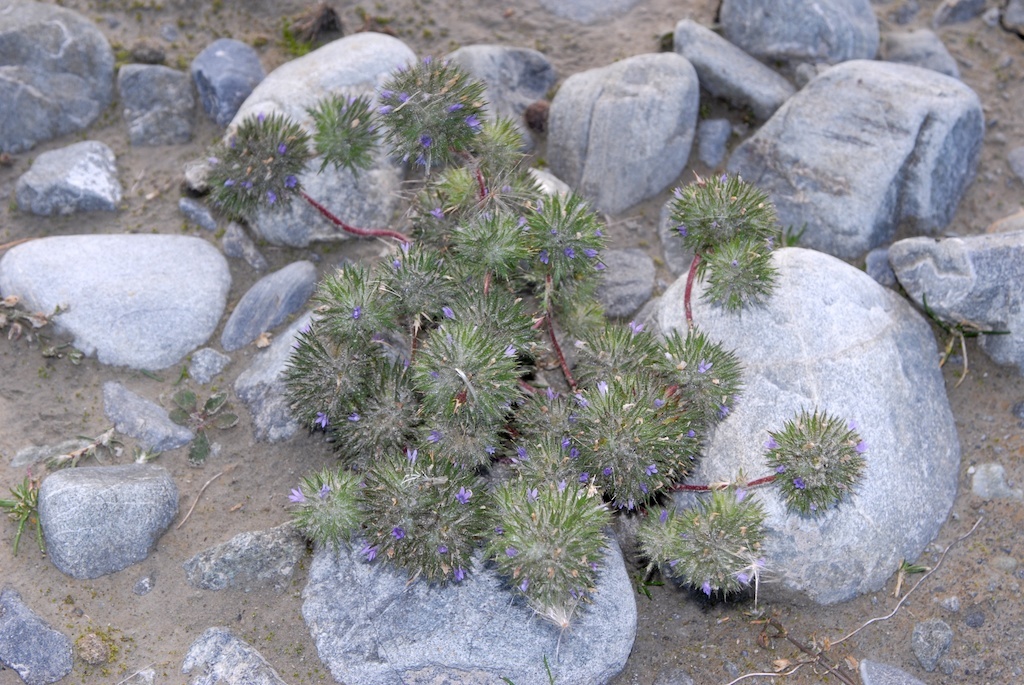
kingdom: Plantae
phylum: Tracheophyta
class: Magnoliopsida
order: Ericales
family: Polemoniaceae
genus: Navarretia
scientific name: Navarretia squarrosa
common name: Skunkweed
